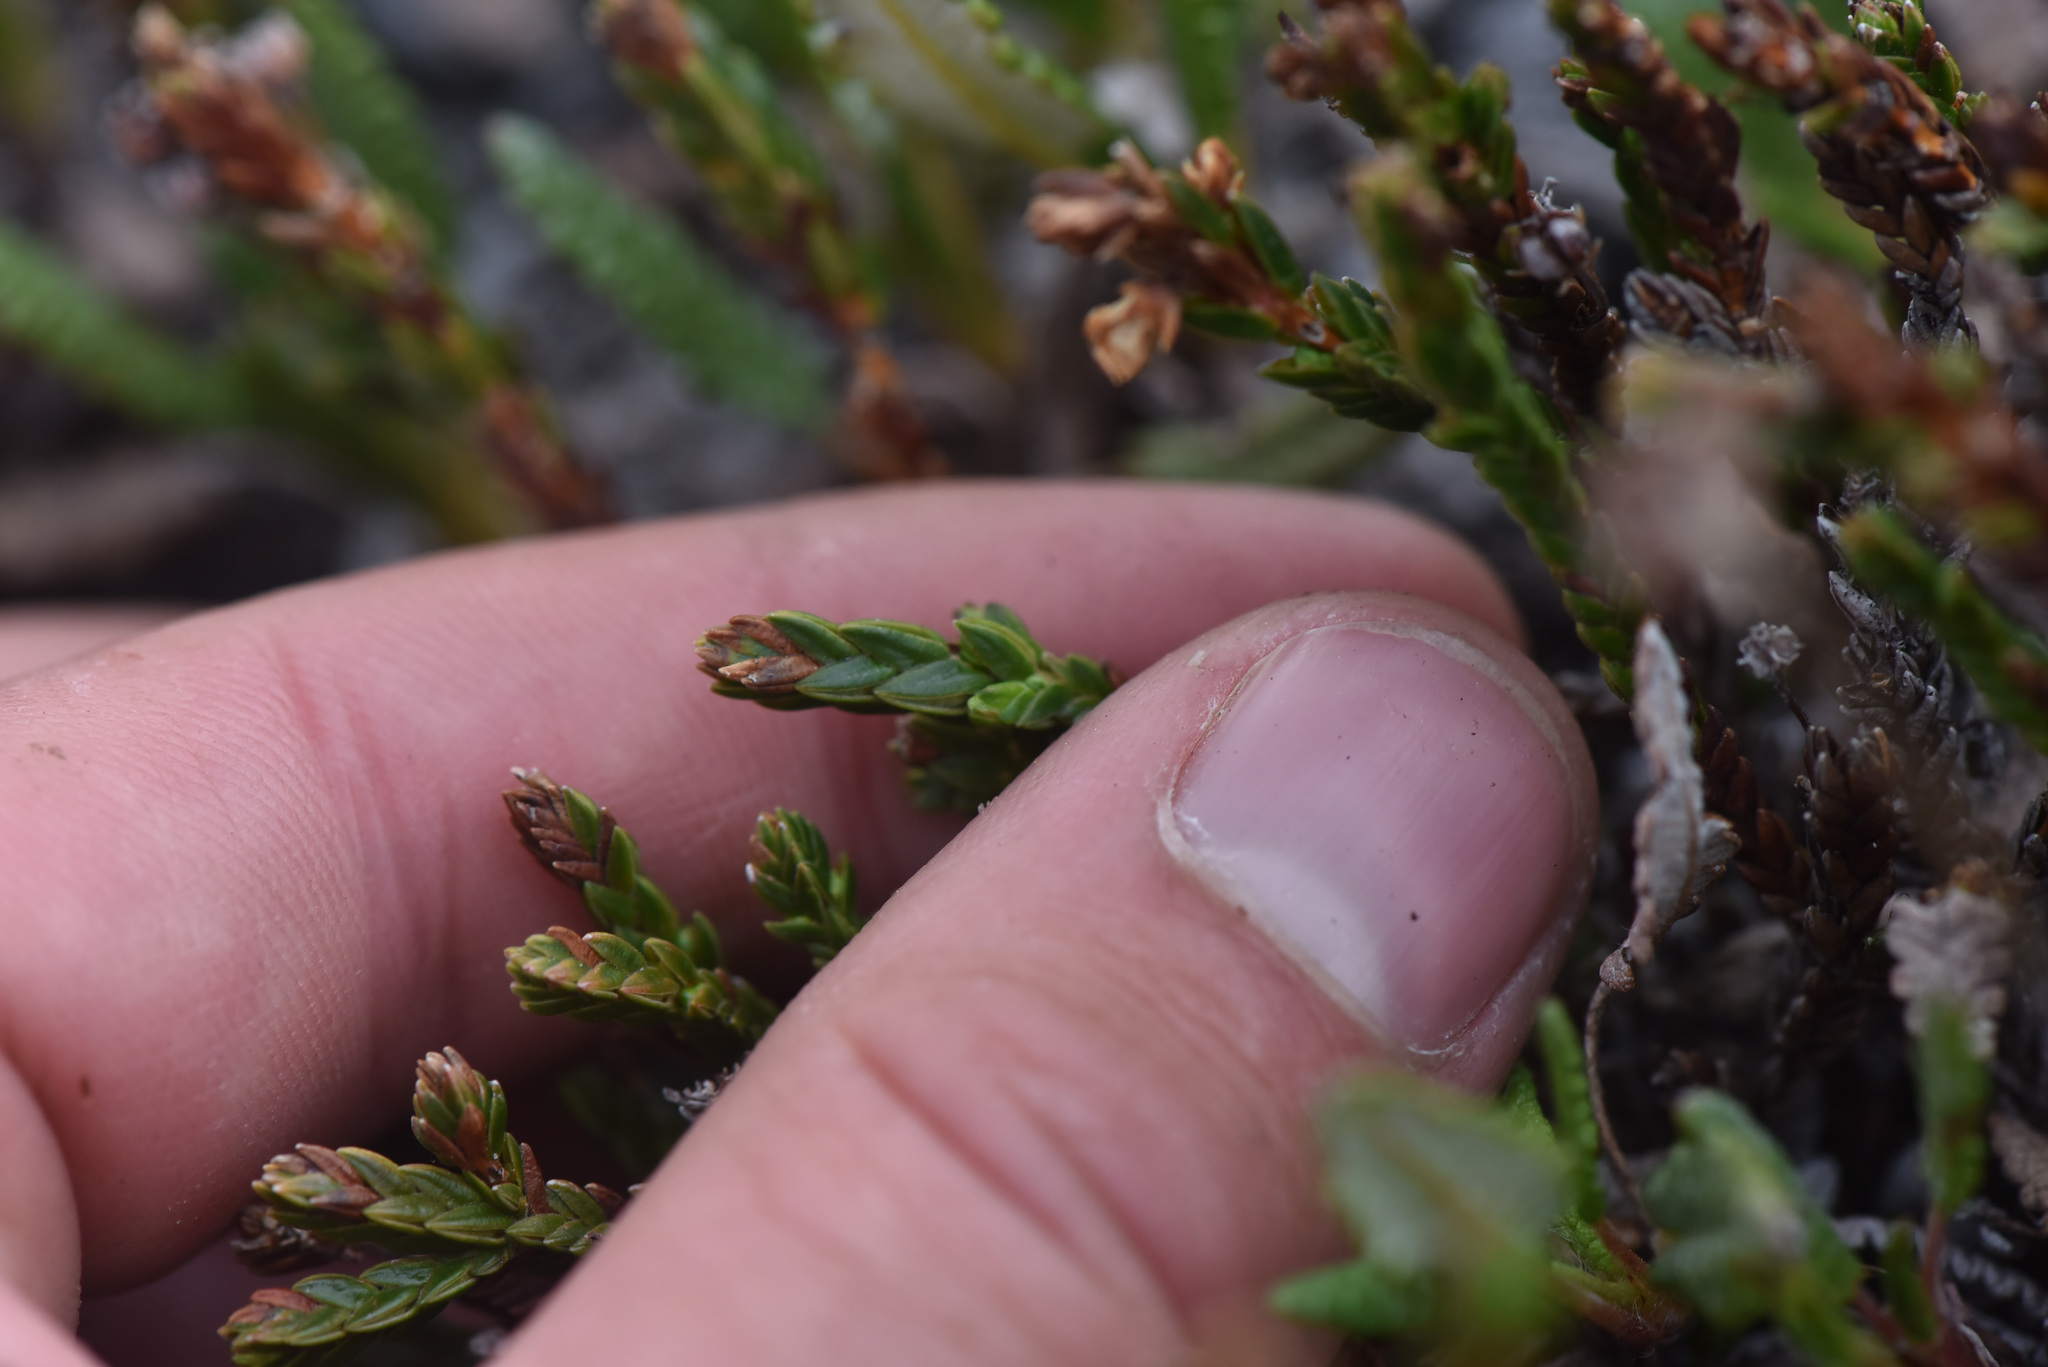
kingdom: Plantae
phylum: Tracheophyta
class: Magnoliopsida
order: Ericales
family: Ericaceae
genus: Cassiope
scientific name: Cassiope tetragona
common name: Arctic bell heather
